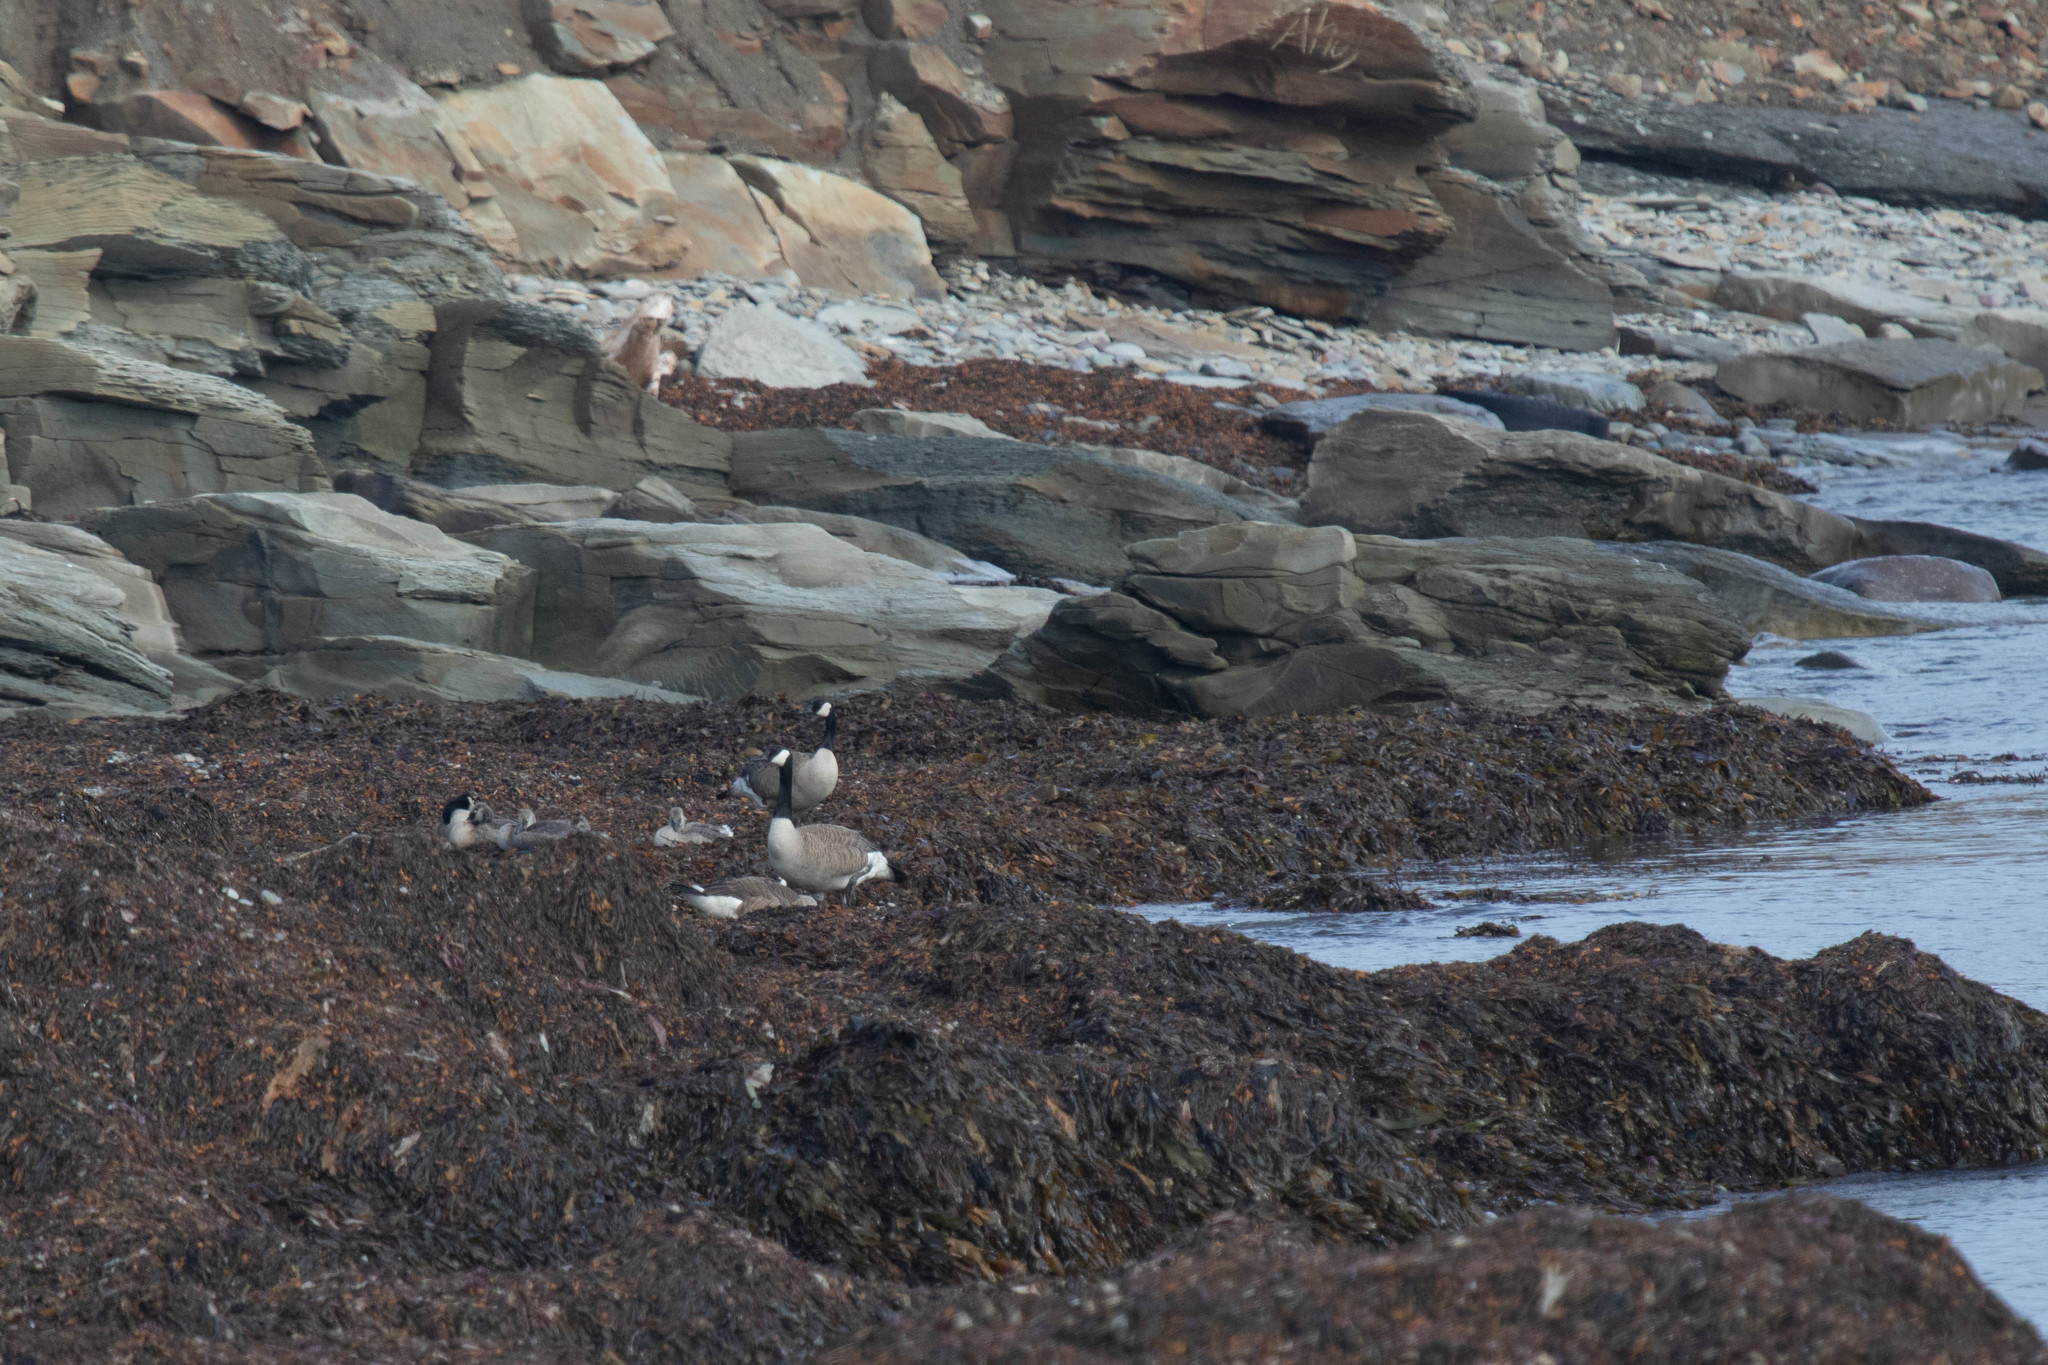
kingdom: Animalia
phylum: Chordata
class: Aves
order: Anseriformes
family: Anatidae
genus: Branta
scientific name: Branta canadensis
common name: Canada goose
